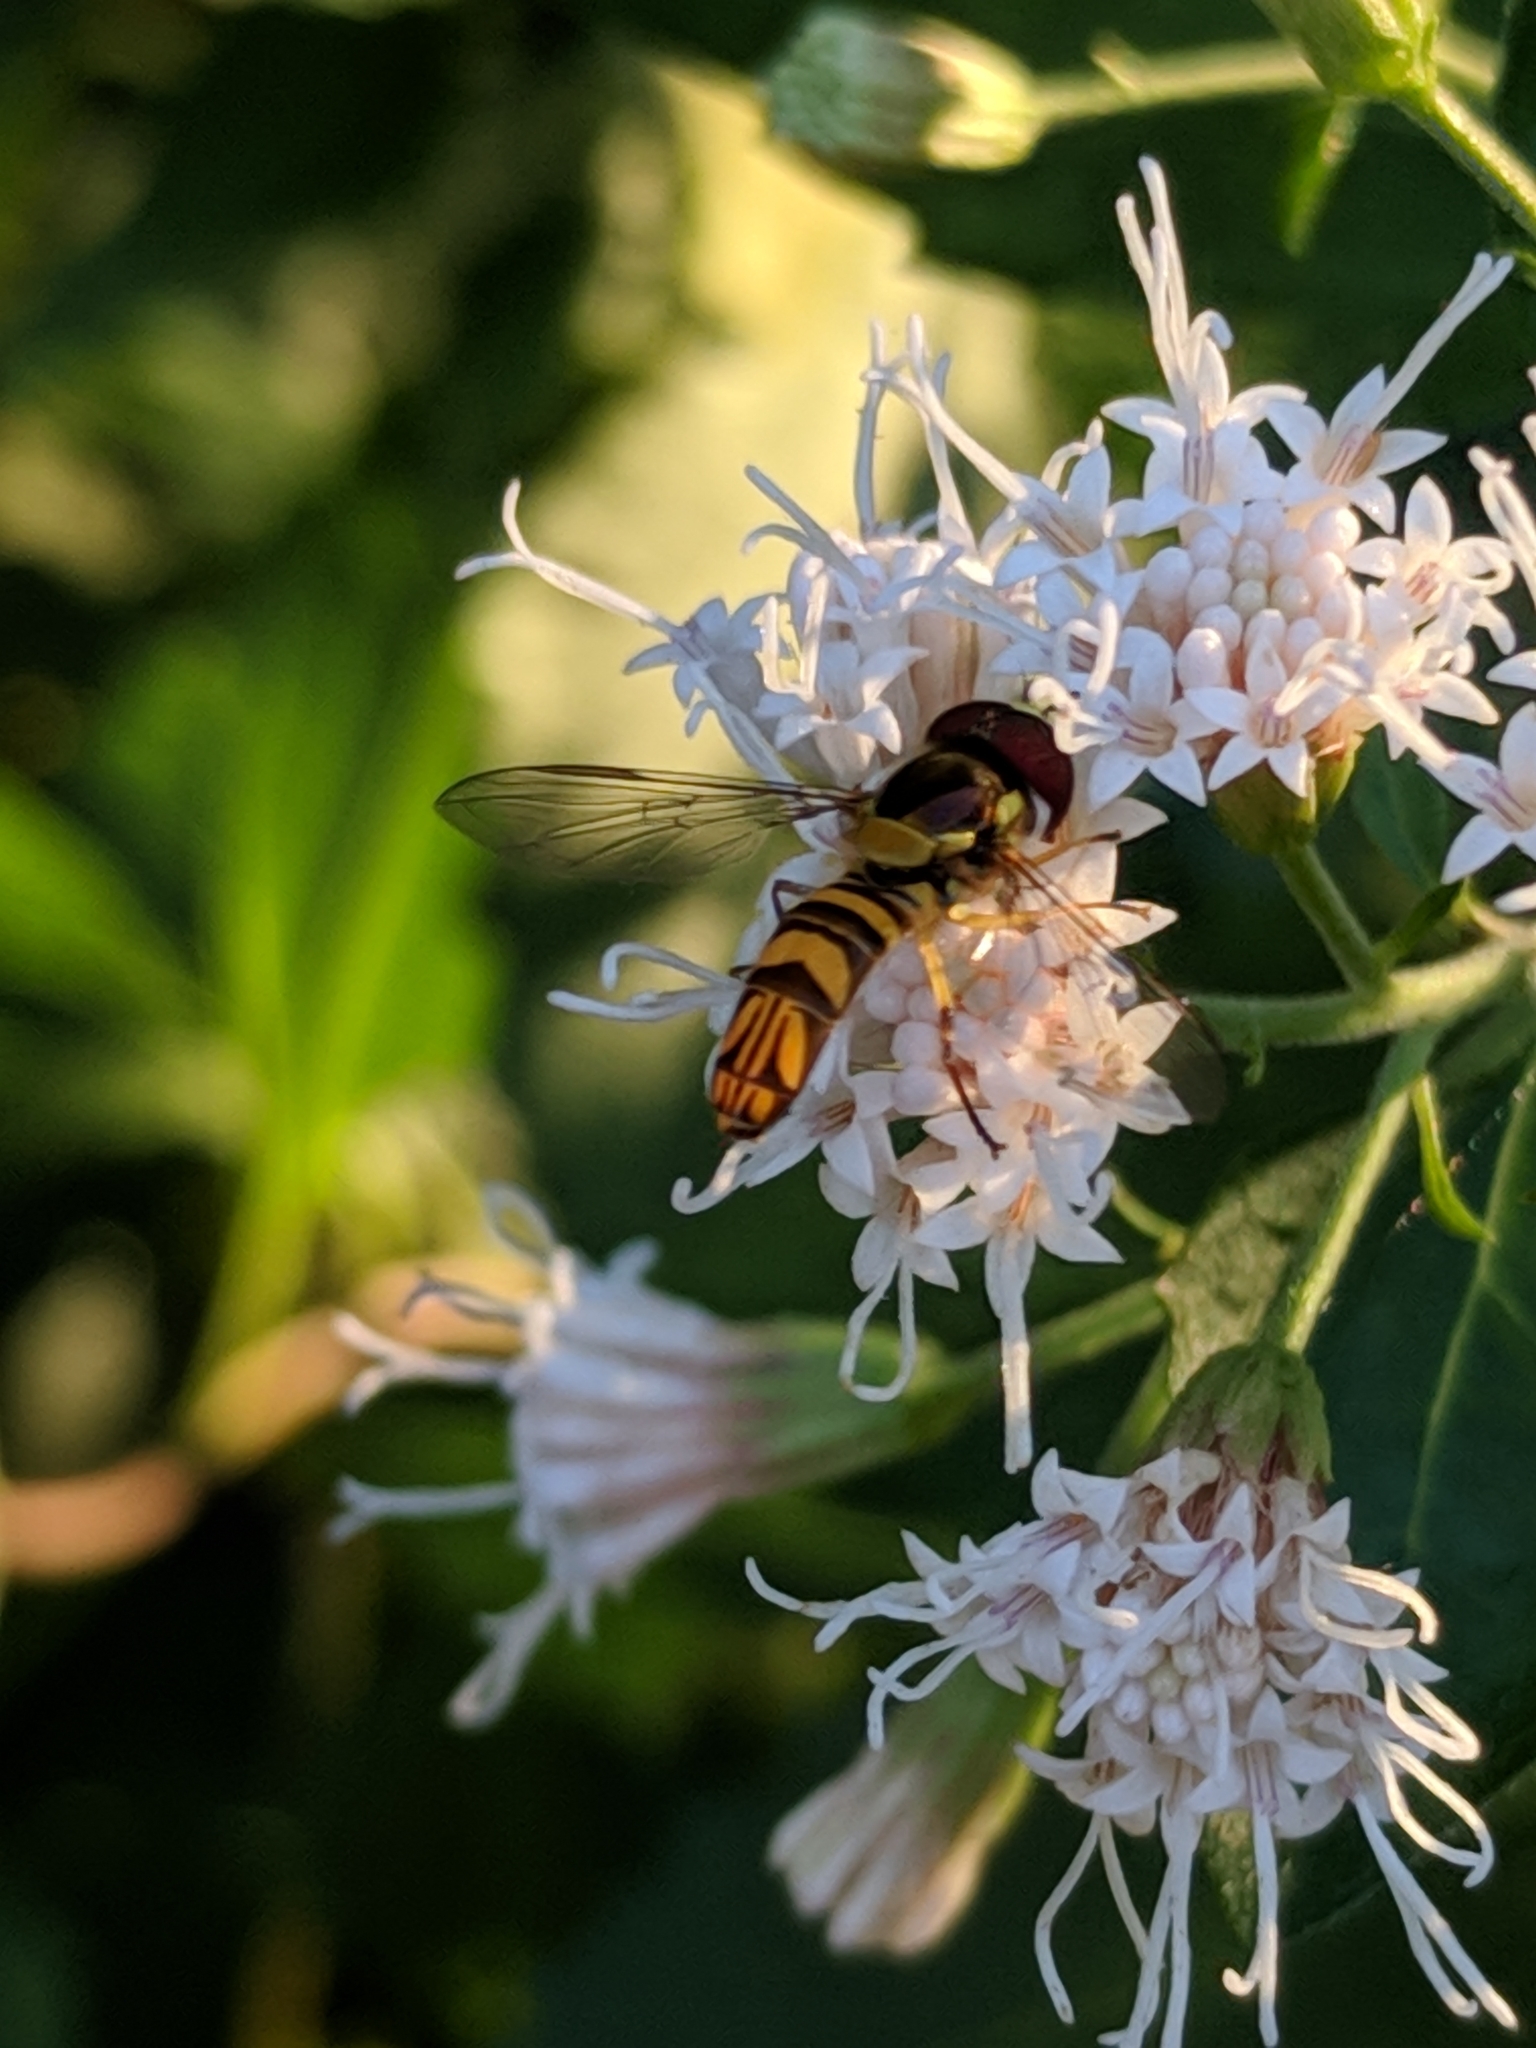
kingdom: Animalia
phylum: Arthropoda
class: Insecta
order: Diptera
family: Syrphidae
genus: Allograpta
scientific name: Allograpta obliqua
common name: Common oblique syrphid
